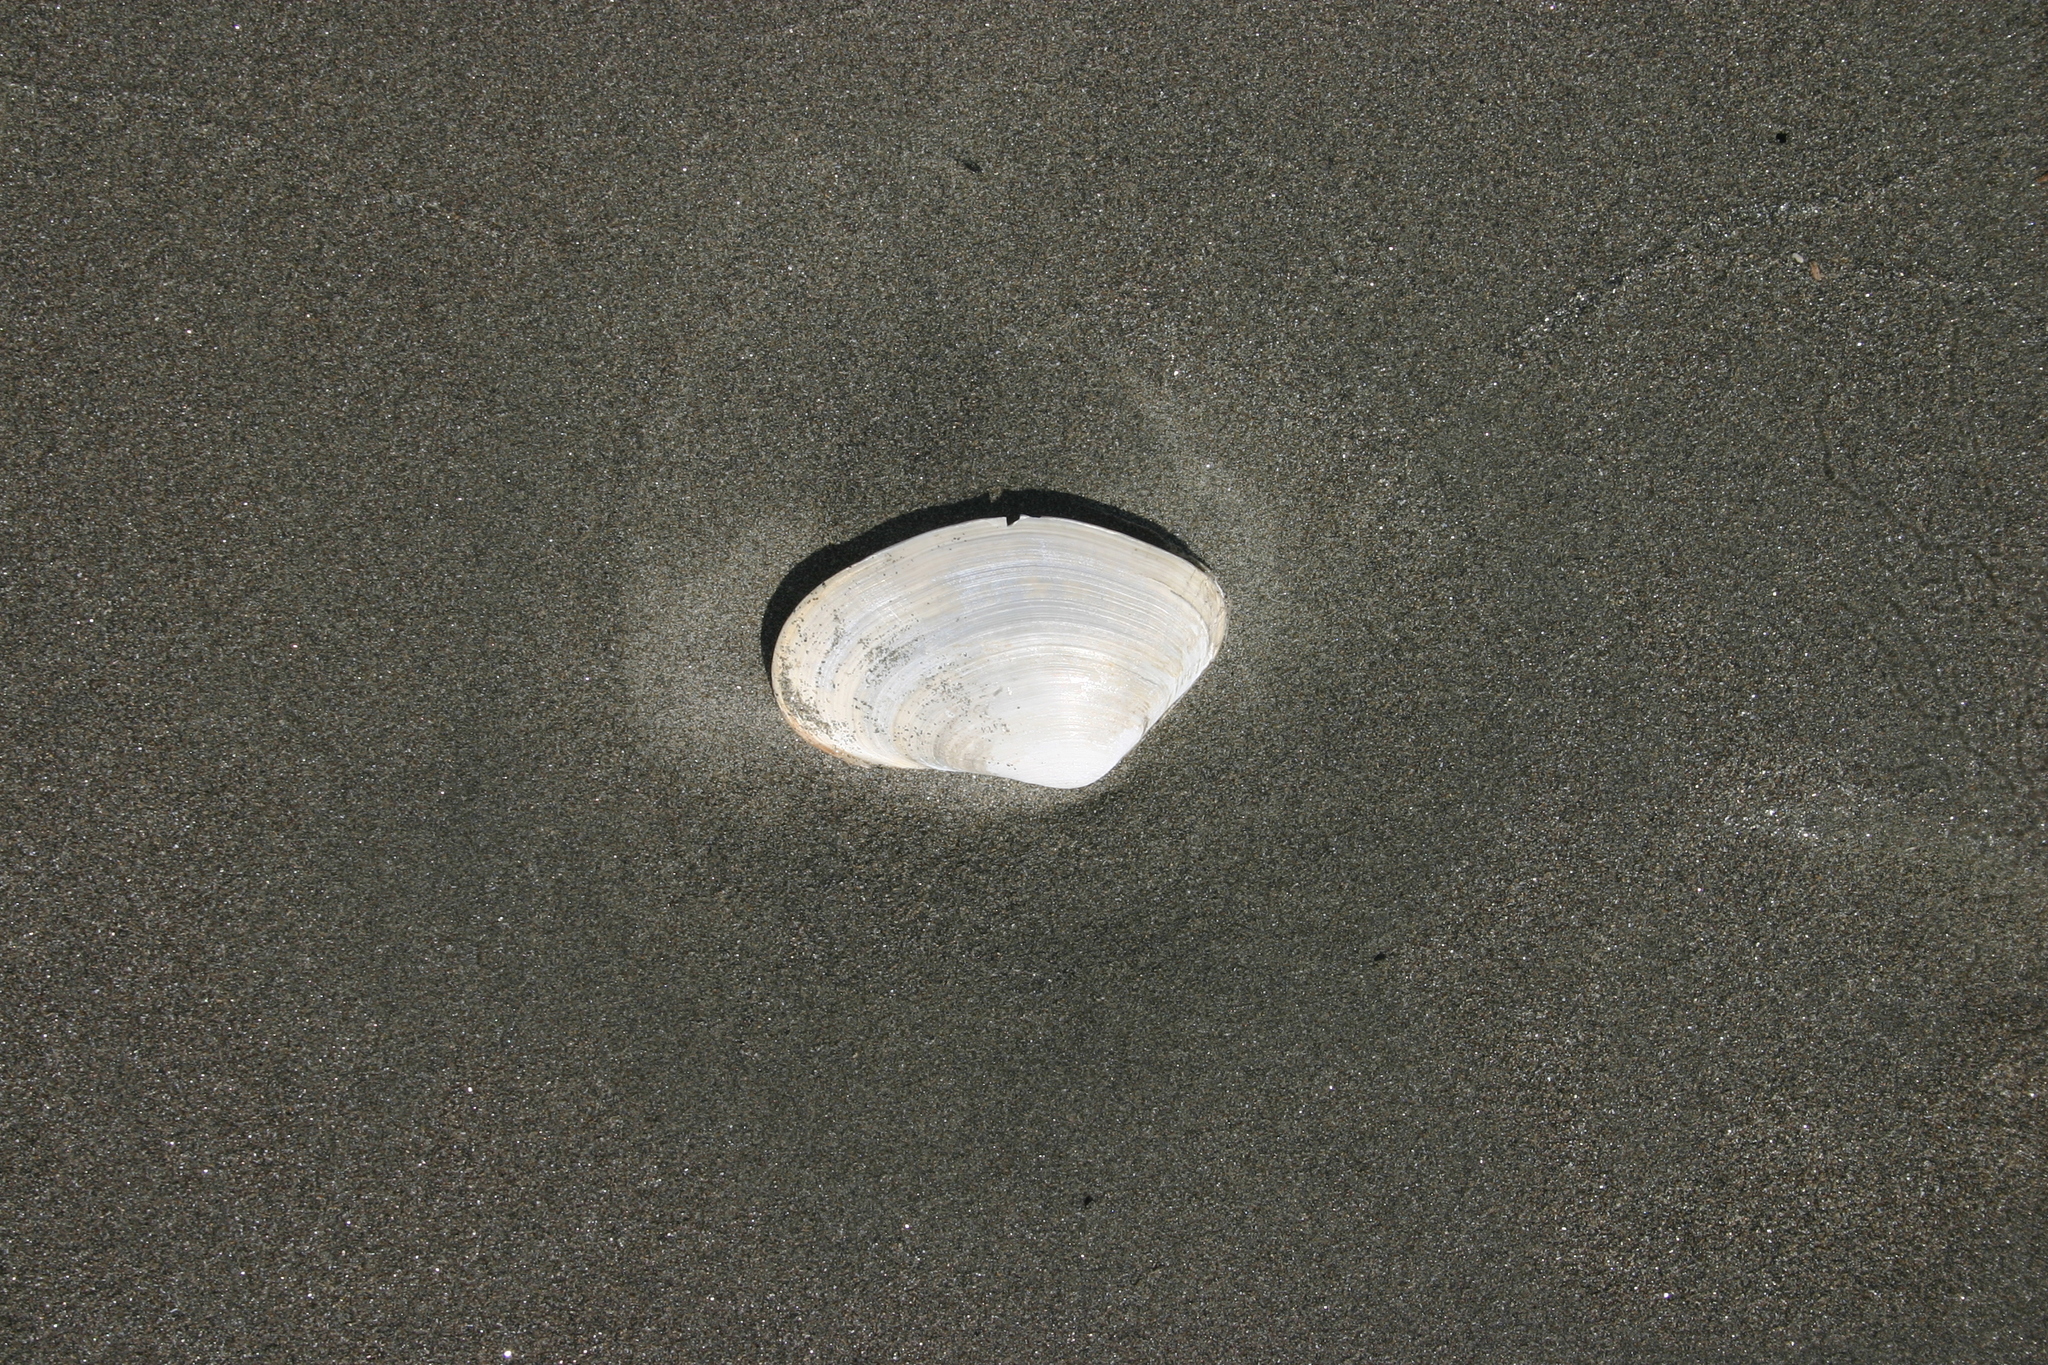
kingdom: Animalia
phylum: Mollusca
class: Bivalvia
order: Venerida
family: Mesodesmatidae
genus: Paphies
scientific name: Paphies ventricosa
